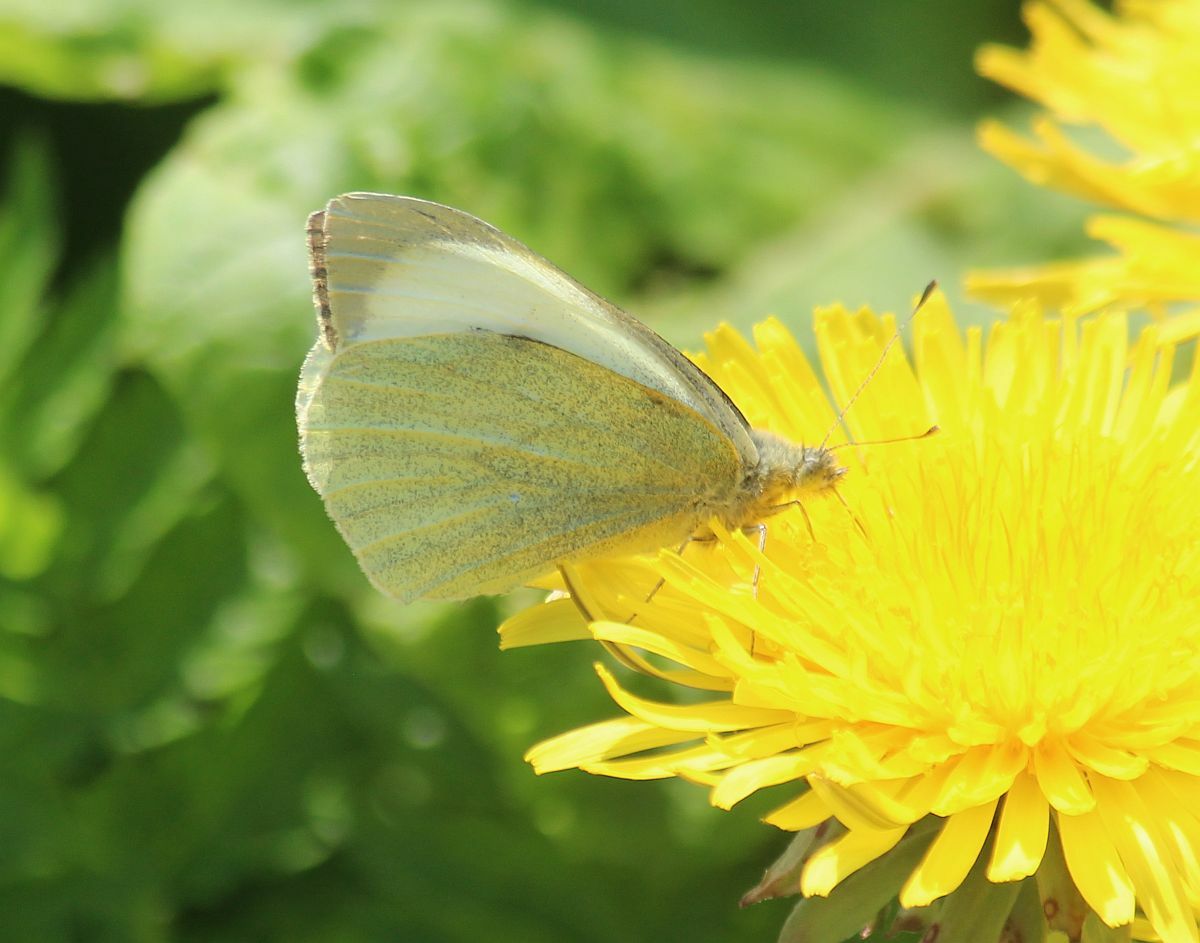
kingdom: Animalia
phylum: Arthropoda
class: Insecta
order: Lepidoptera
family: Pieridae
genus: Pieris
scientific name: Pieris brassicae
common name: Large white
